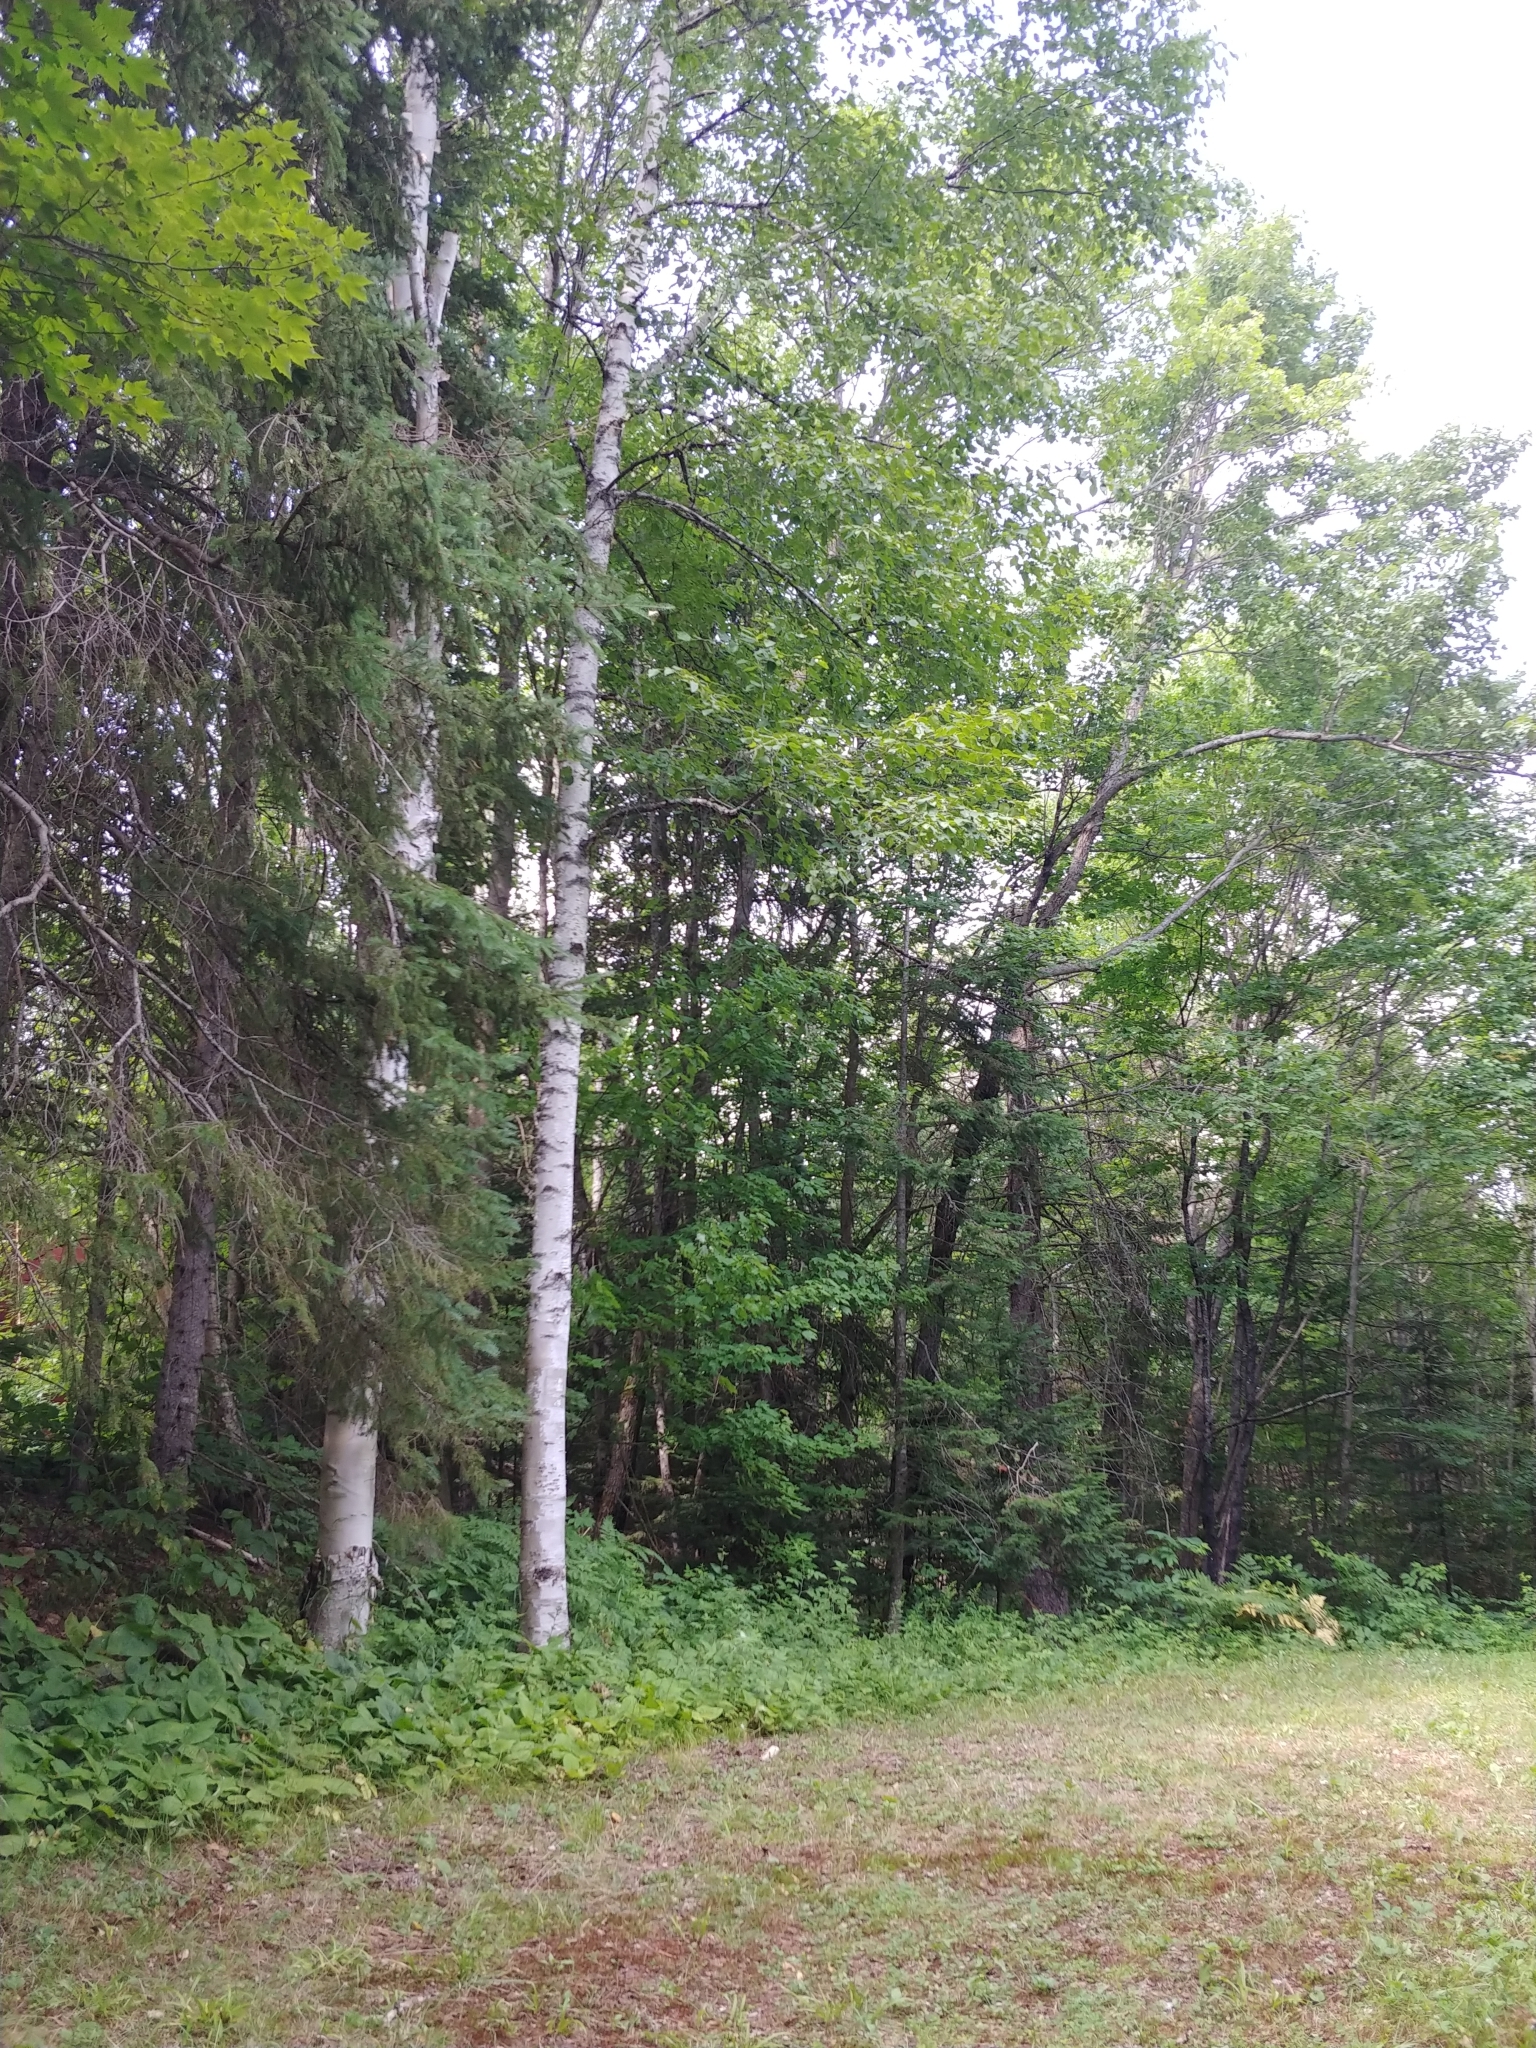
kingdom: Plantae
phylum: Tracheophyta
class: Magnoliopsida
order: Fagales
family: Betulaceae
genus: Betula
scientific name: Betula papyrifera
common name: Paper birch
